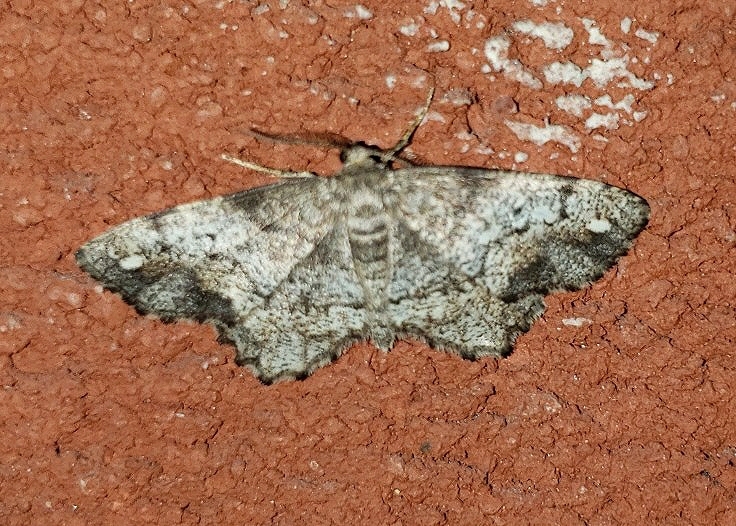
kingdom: Animalia
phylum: Arthropoda
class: Insecta
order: Lepidoptera
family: Geometridae
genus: Hypagyrtis
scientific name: Hypagyrtis unipunctata
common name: One-spotted variant
